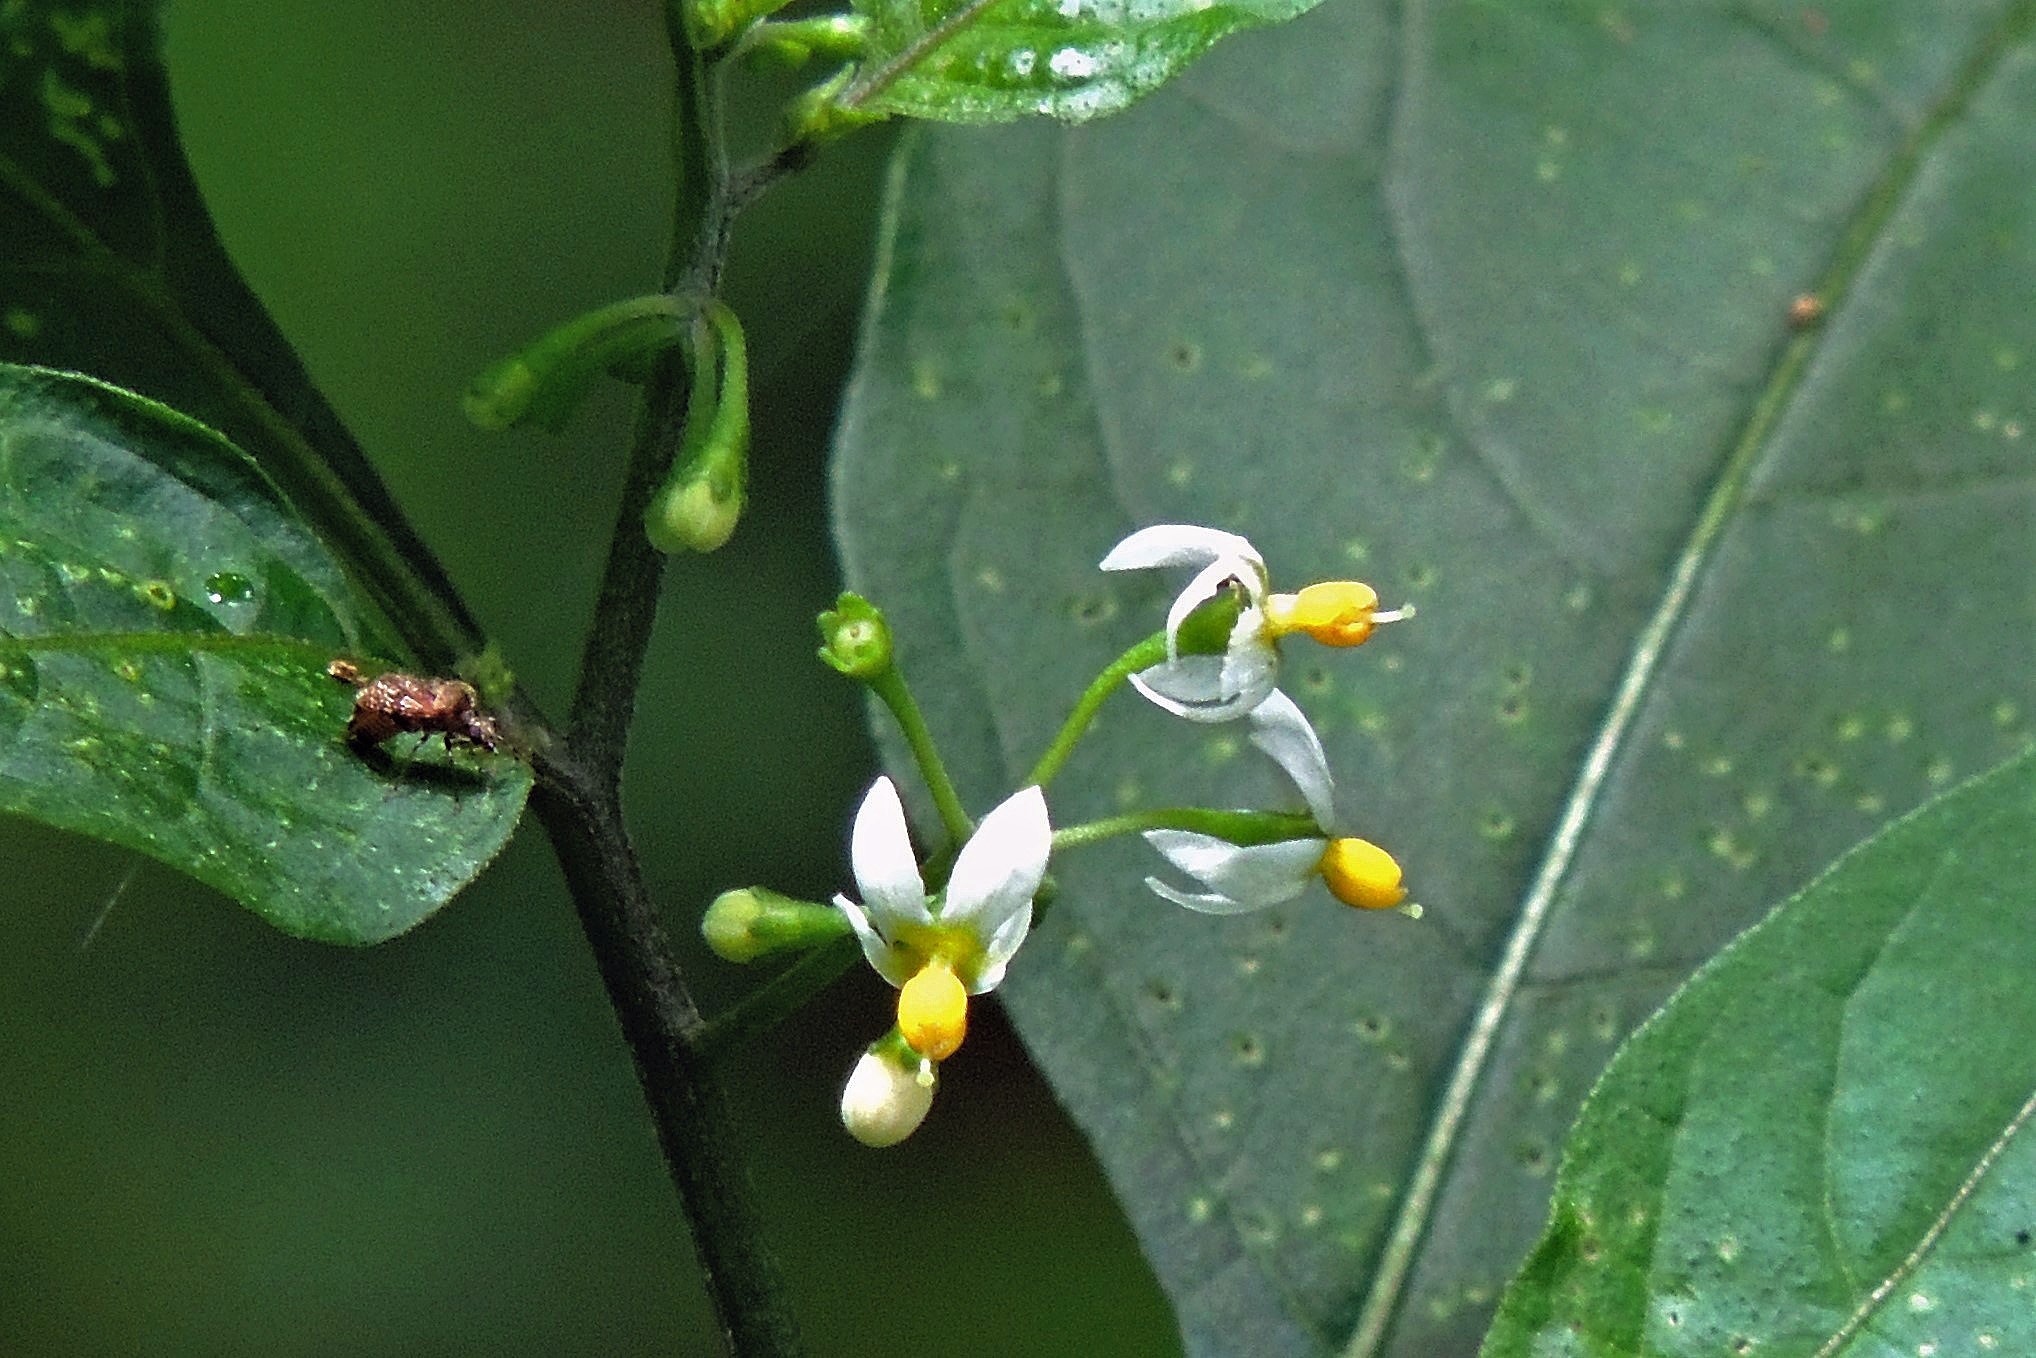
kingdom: Plantae
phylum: Tracheophyta
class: Magnoliopsida
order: Solanales
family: Solanaceae
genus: Solanum
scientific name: Solanum americanum
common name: American black nightshade
